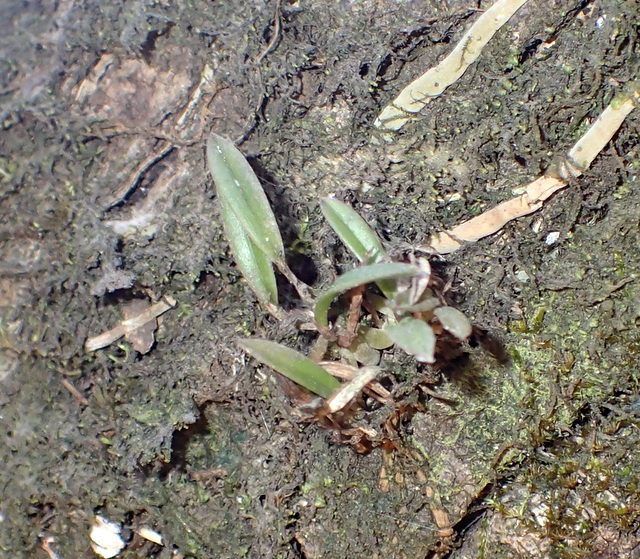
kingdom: Plantae
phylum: Tracheophyta
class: Liliopsida
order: Asparagales
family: Orchidaceae
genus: Epidendrum
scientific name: Epidendrum conopseum
